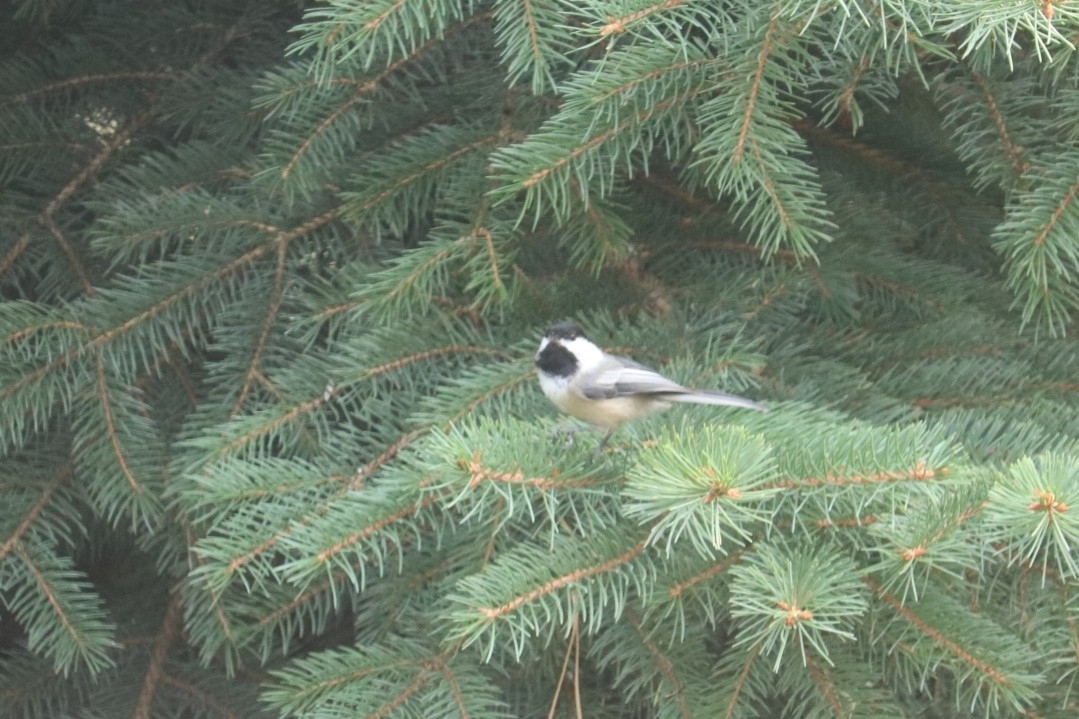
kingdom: Animalia
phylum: Chordata
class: Aves
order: Passeriformes
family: Paridae
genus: Poecile
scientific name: Poecile atricapillus
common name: Black-capped chickadee
